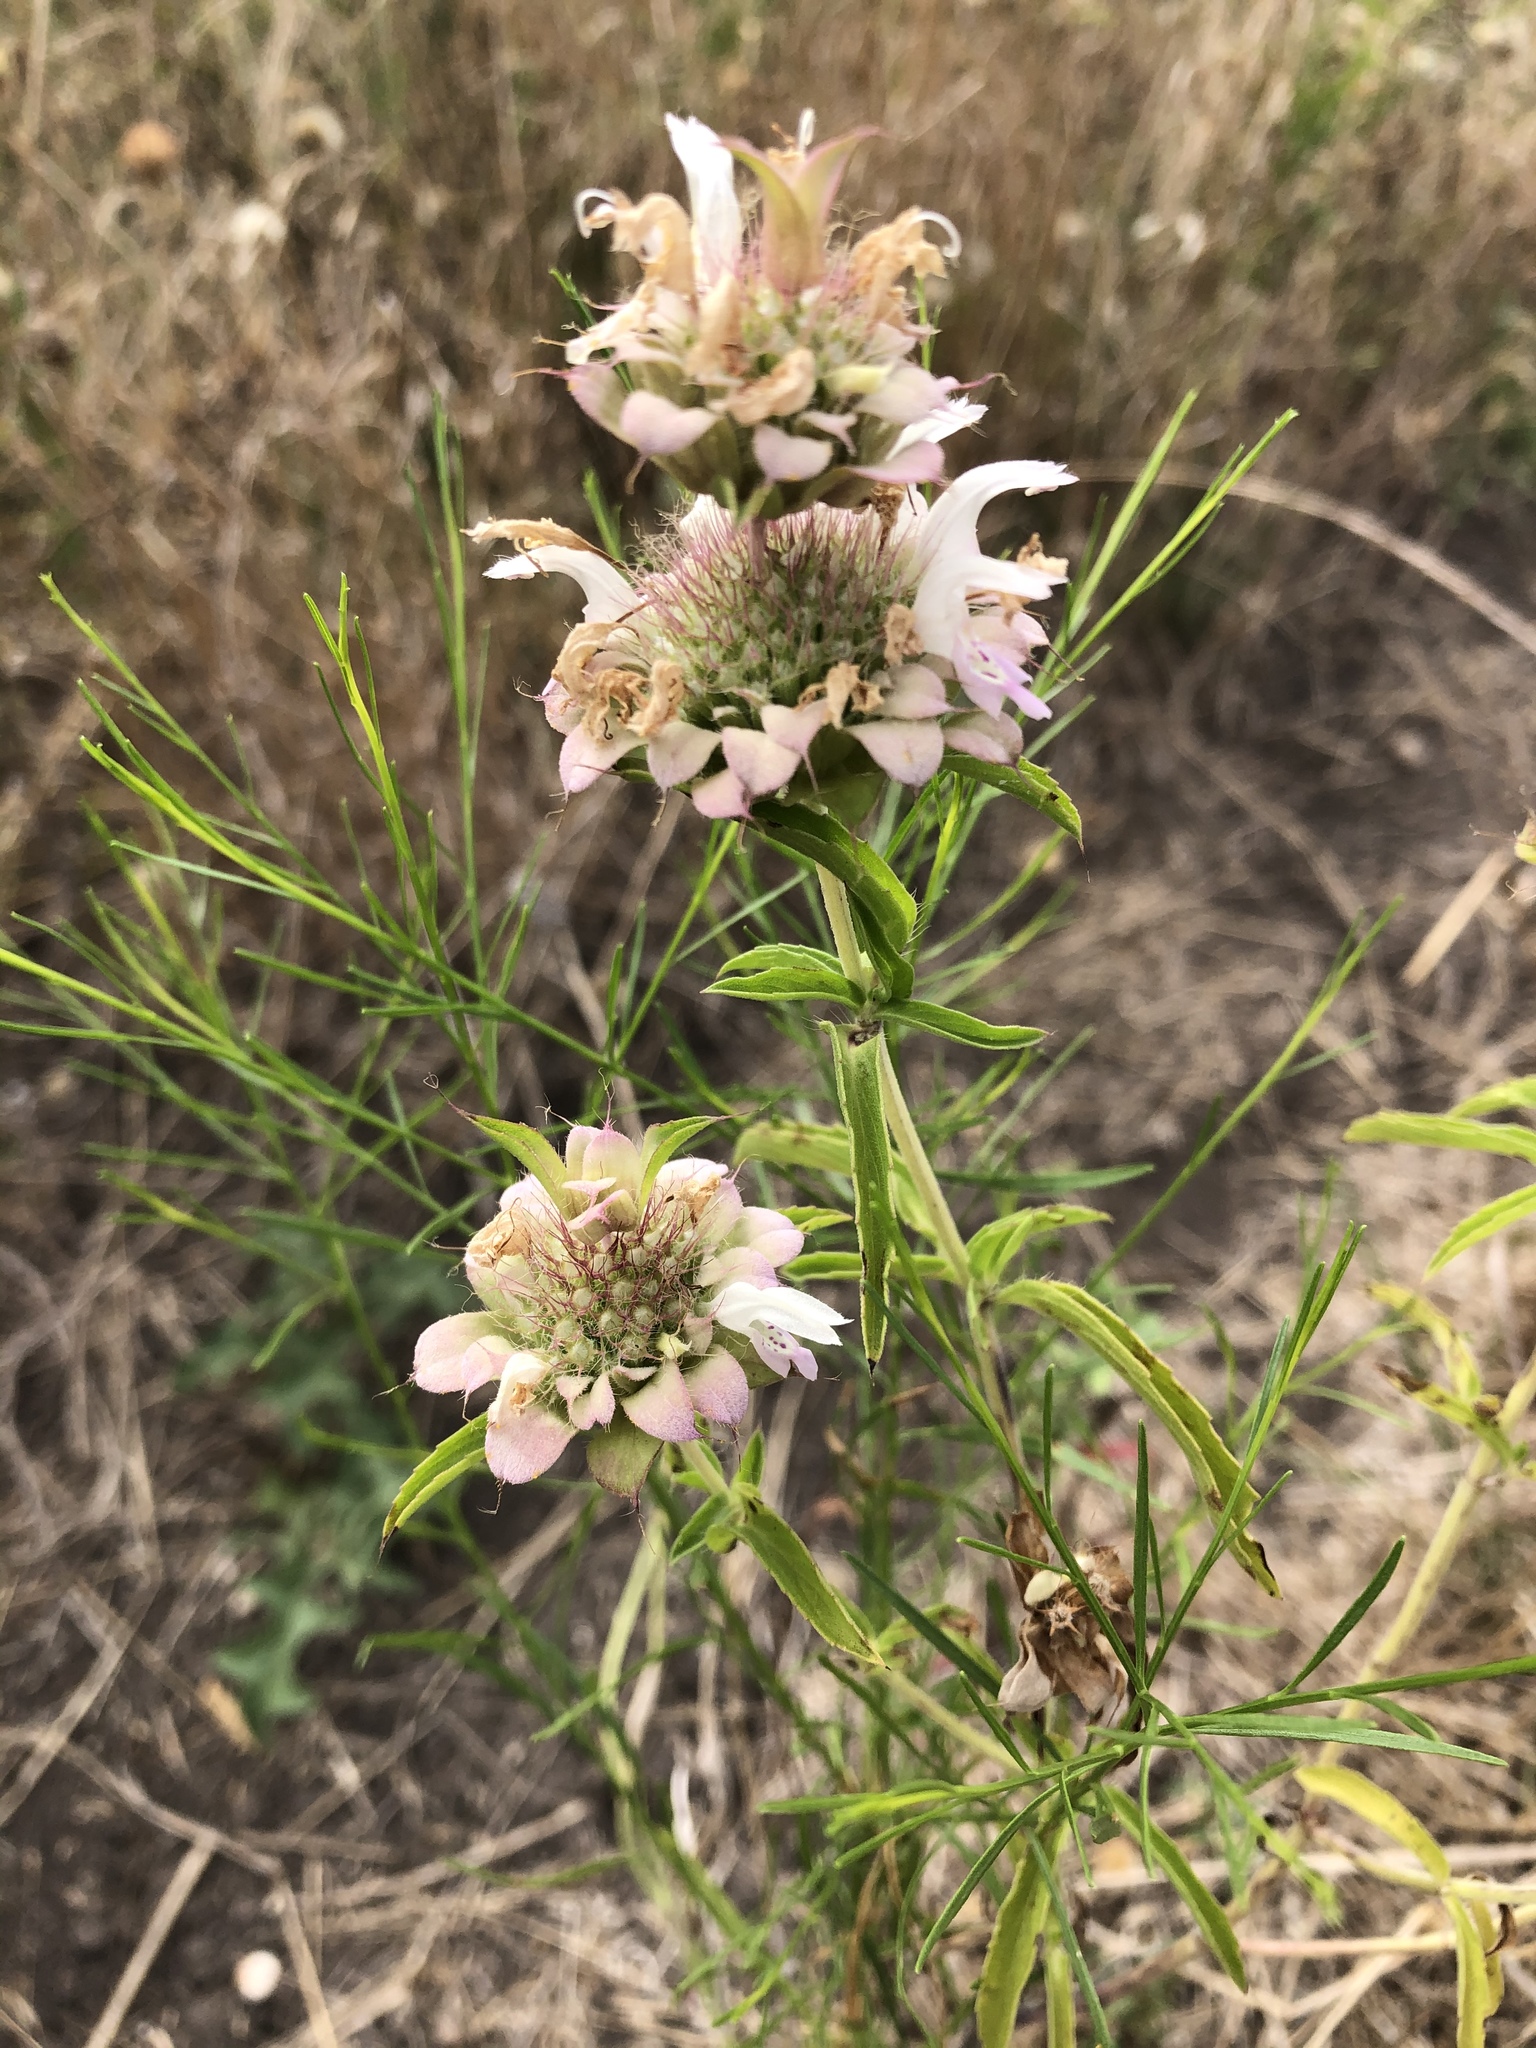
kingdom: Plantae
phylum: Tracheophyta
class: Magnoliopsida
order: Lamiales
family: Lamiaceae
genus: Monarda
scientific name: Monarda citriodora
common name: Lemon beebalm
